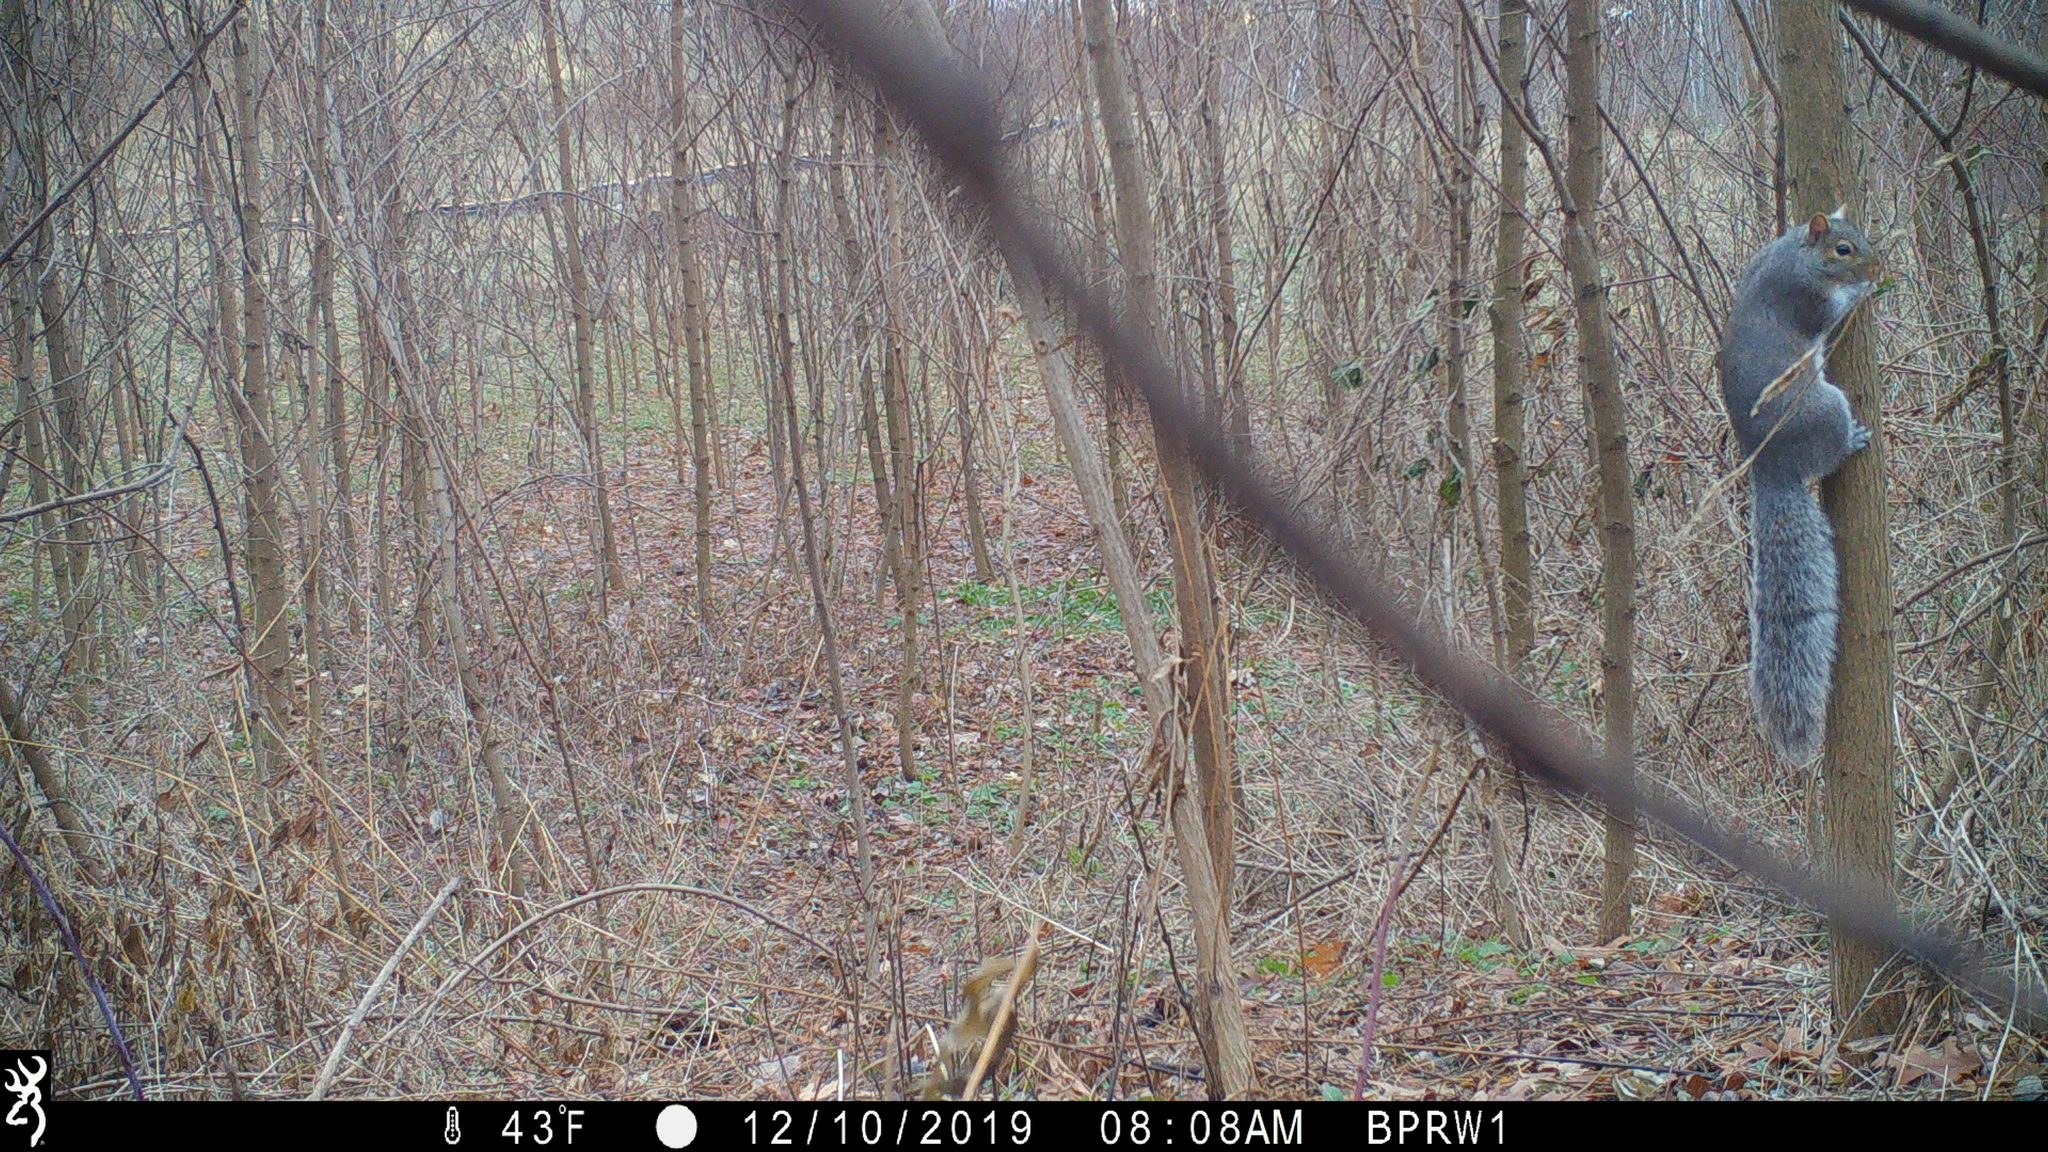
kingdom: Animalia
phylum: Chordata
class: Mammalia
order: Rodentia
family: Sciuridae
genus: Sciurus
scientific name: Sciurus carolinensis
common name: Eastern gray squirrel
